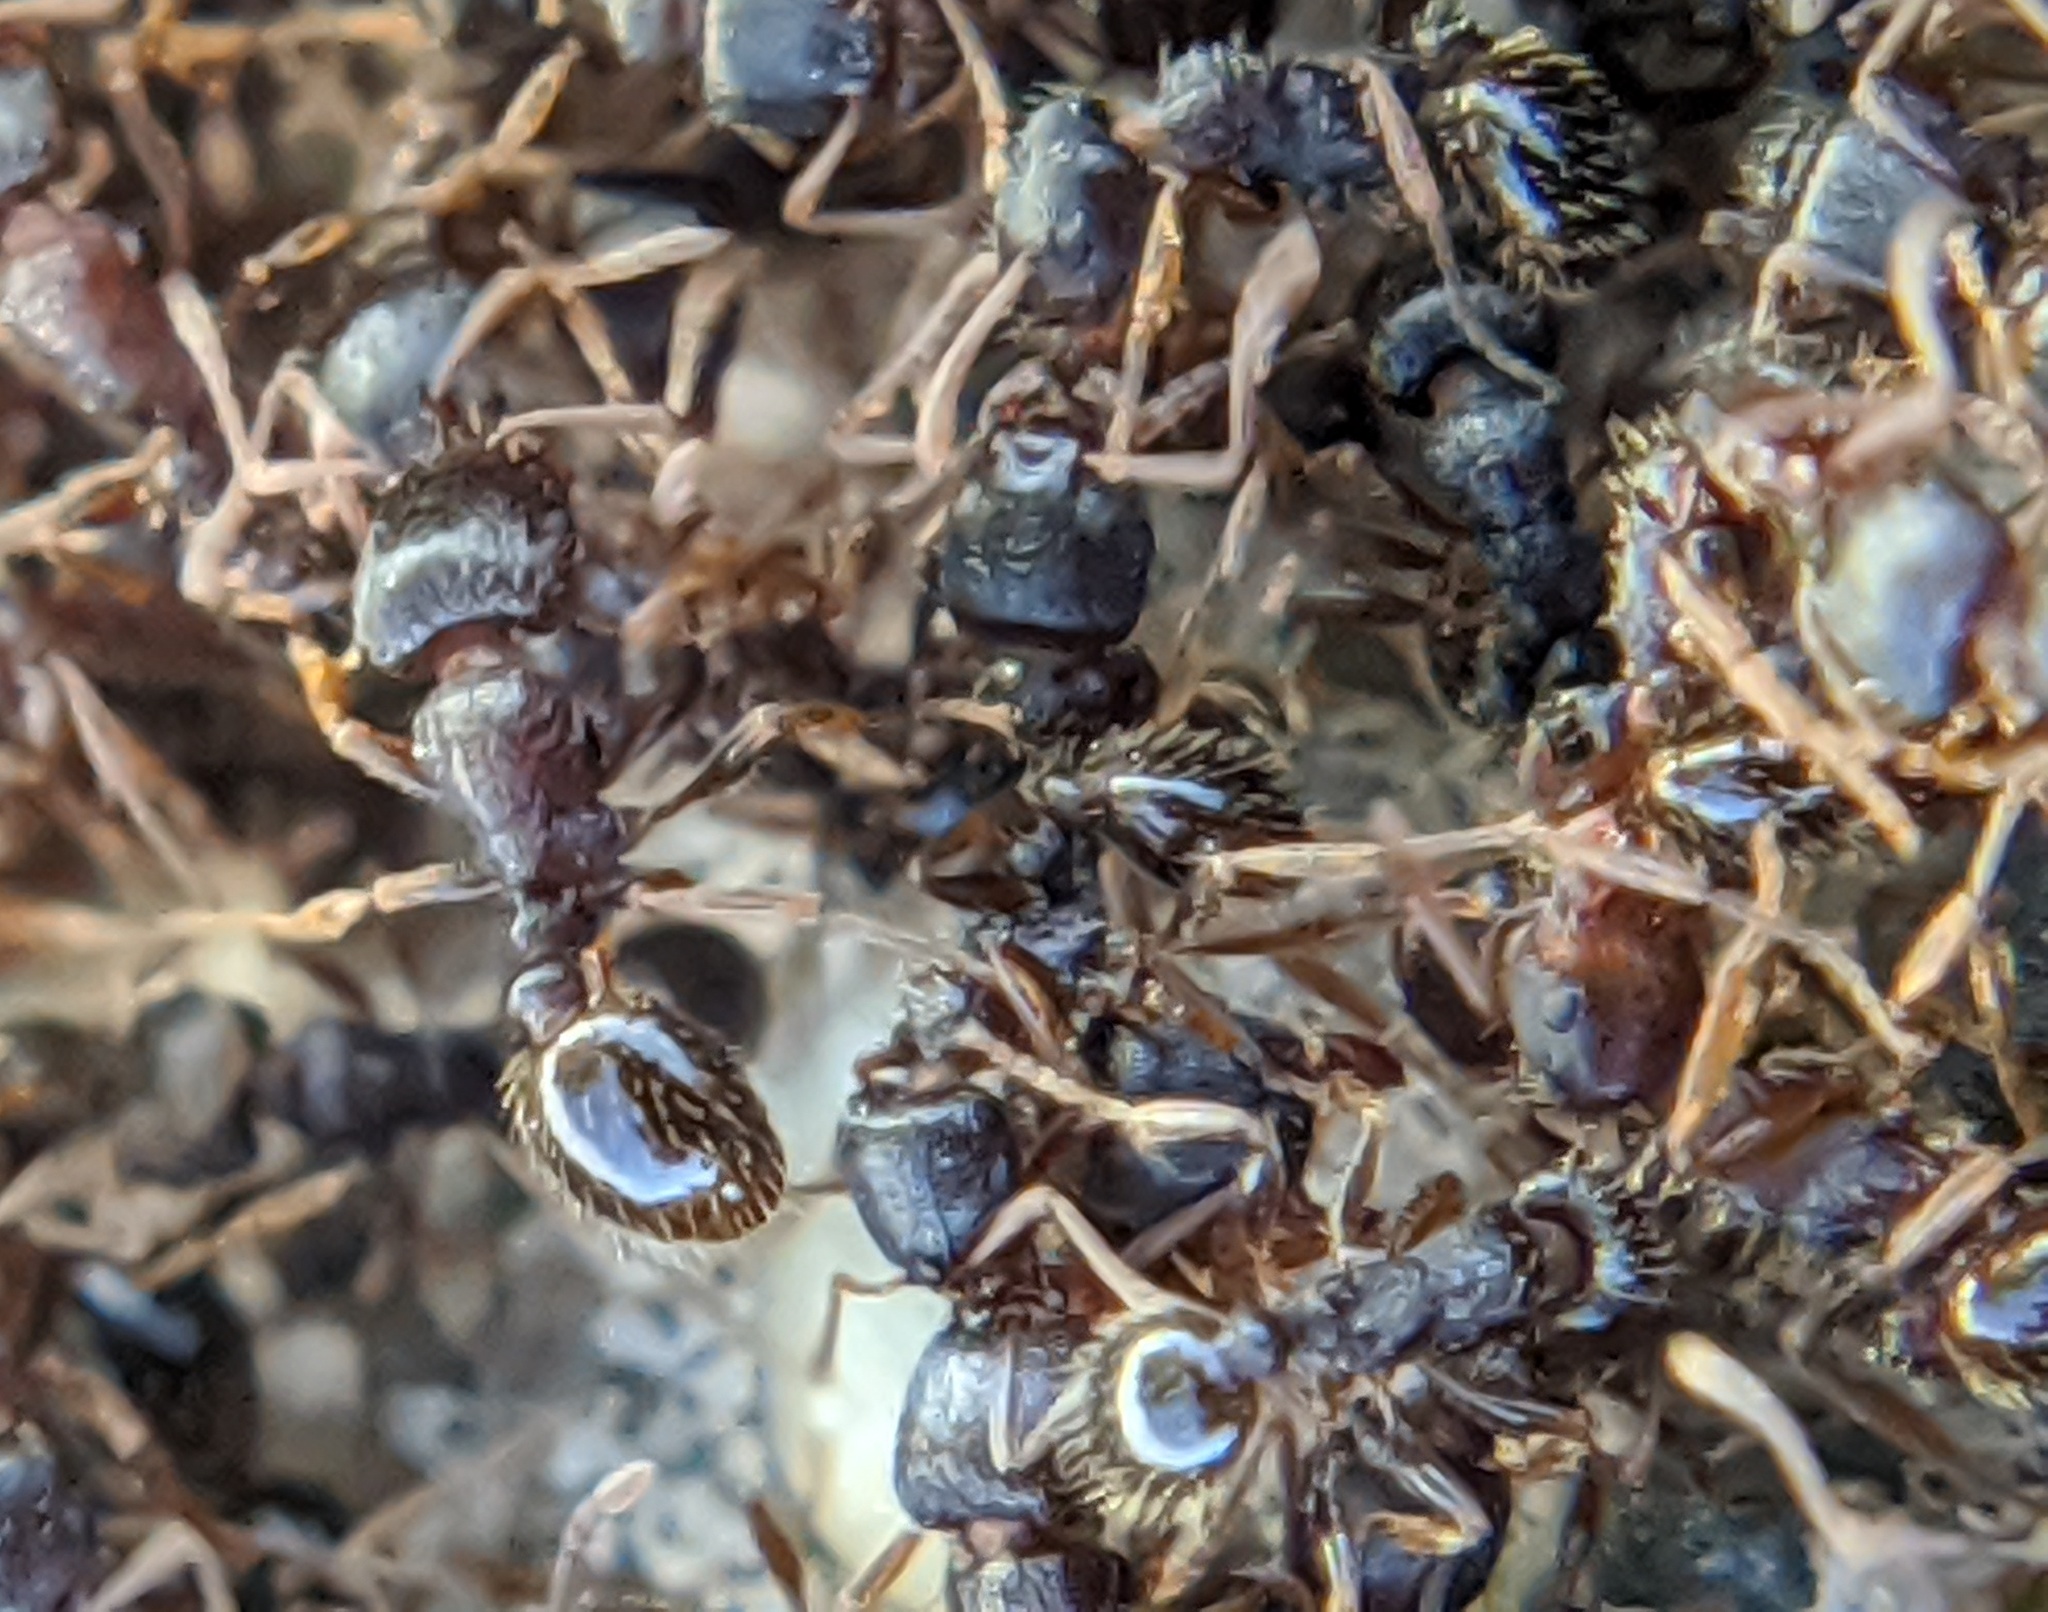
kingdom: Animalia
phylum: Arthropoda
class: Insecta
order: Hymenoptera
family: Formicidae
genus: Tetramorium
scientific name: Tetramorium immigrans
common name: Pavement ant
